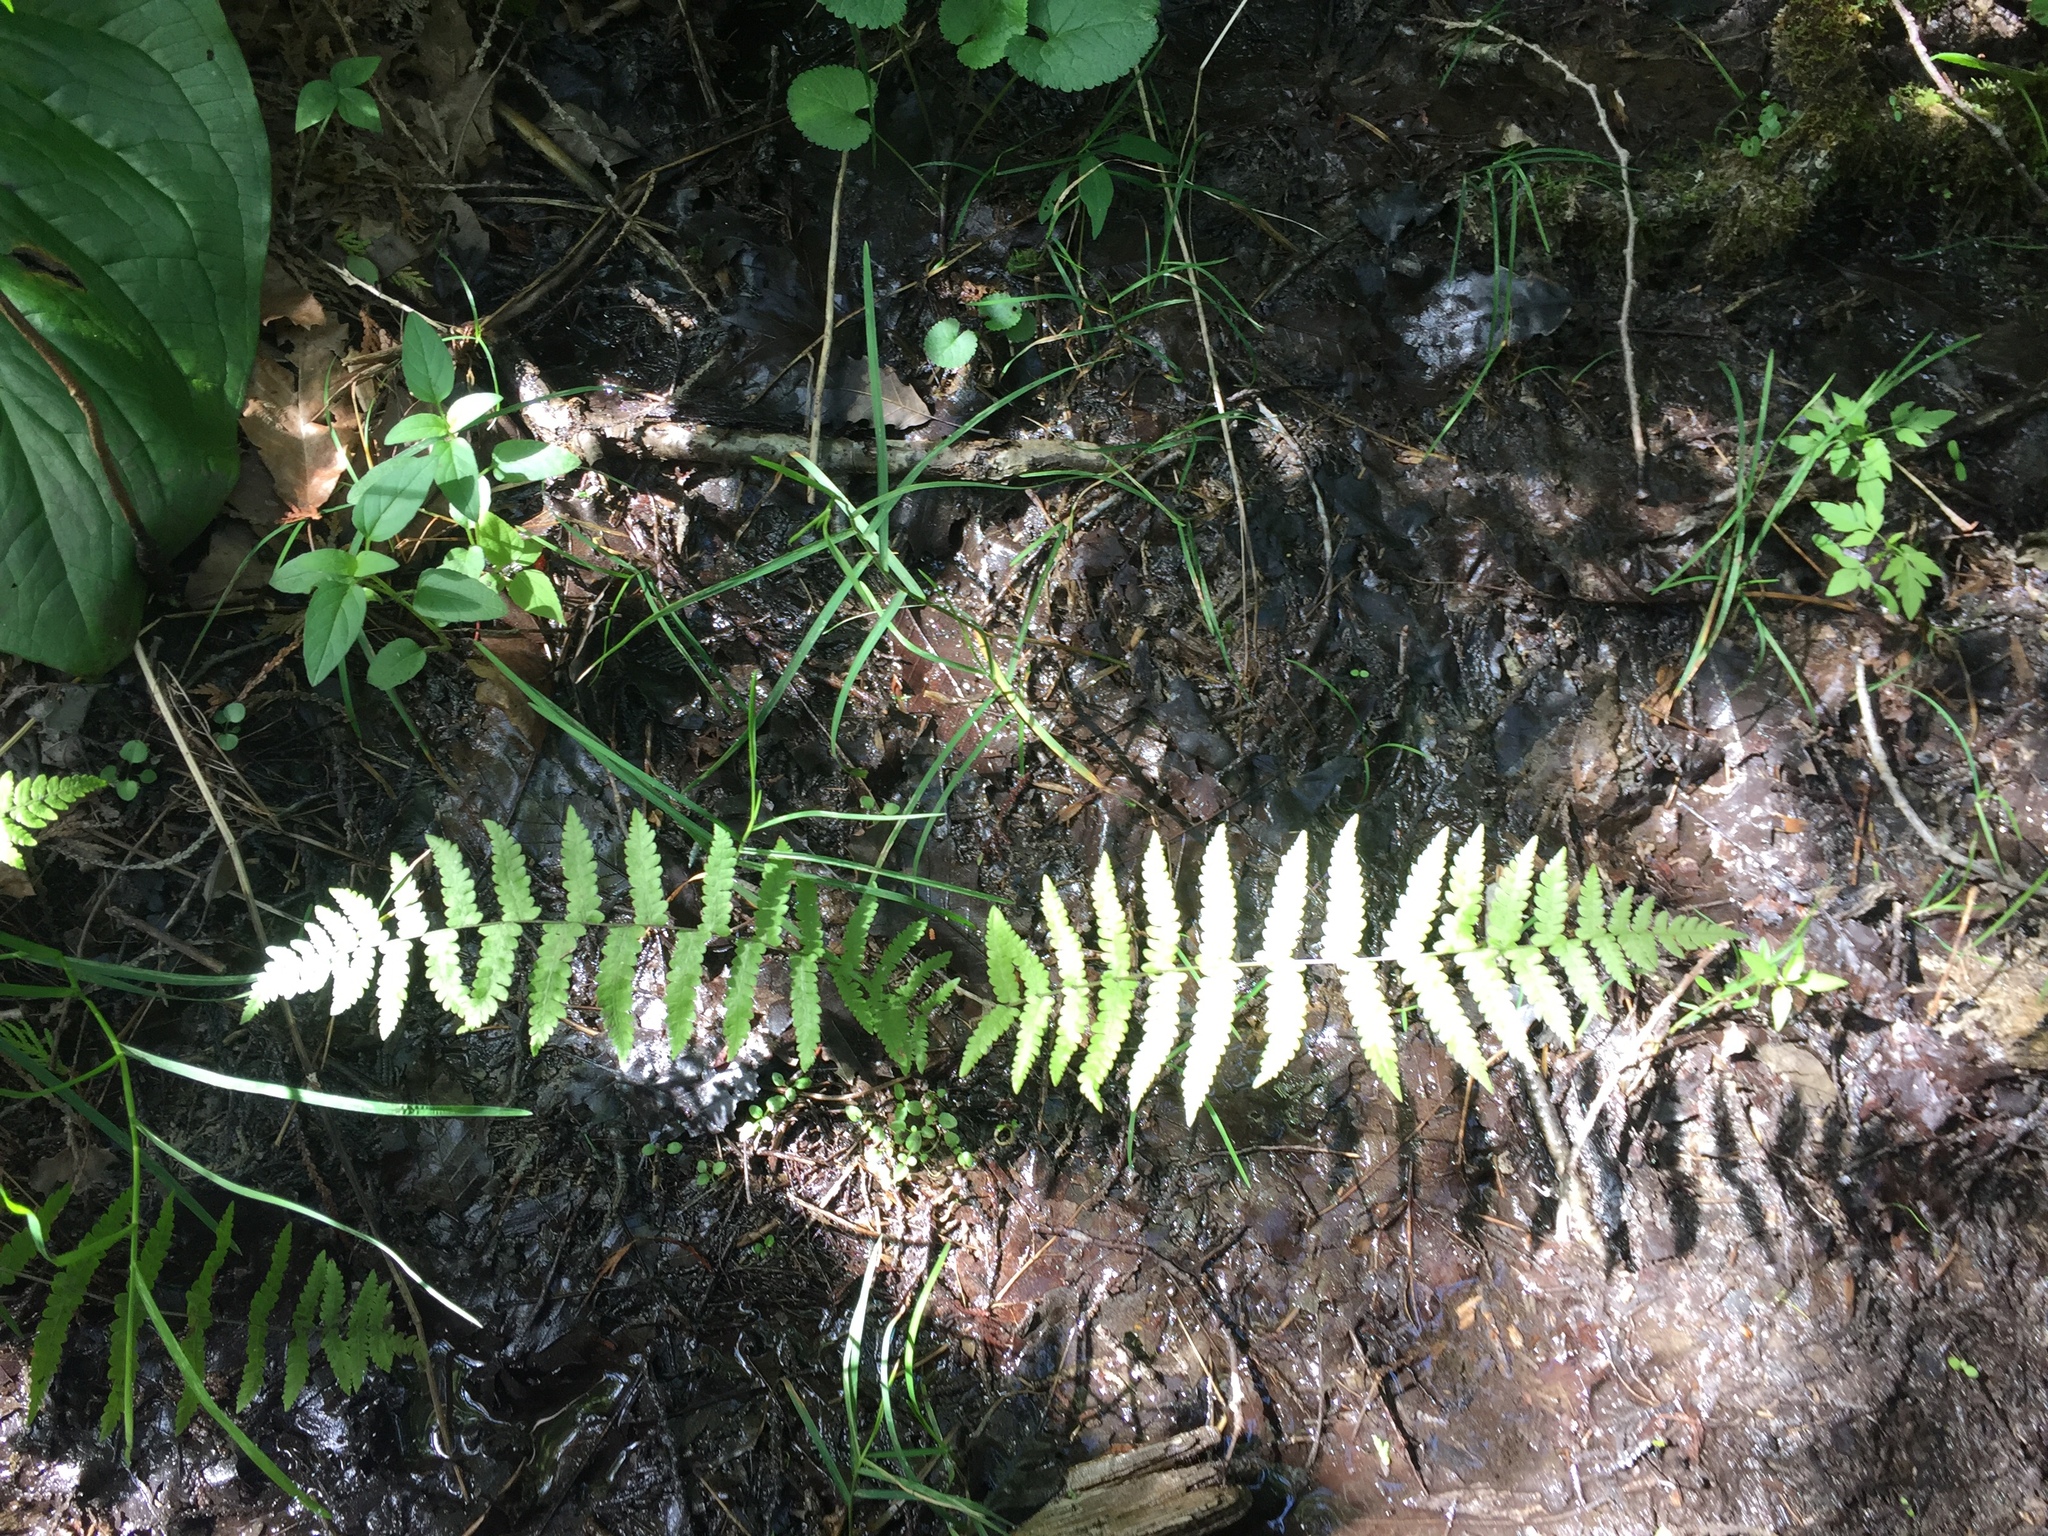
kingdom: Plantae
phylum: Tracheophyta
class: Polypodiopsida
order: Polypodiales
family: Thelypteridaceae
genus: Thelypteris
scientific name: Thelypteris palustris
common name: Marsh fern
